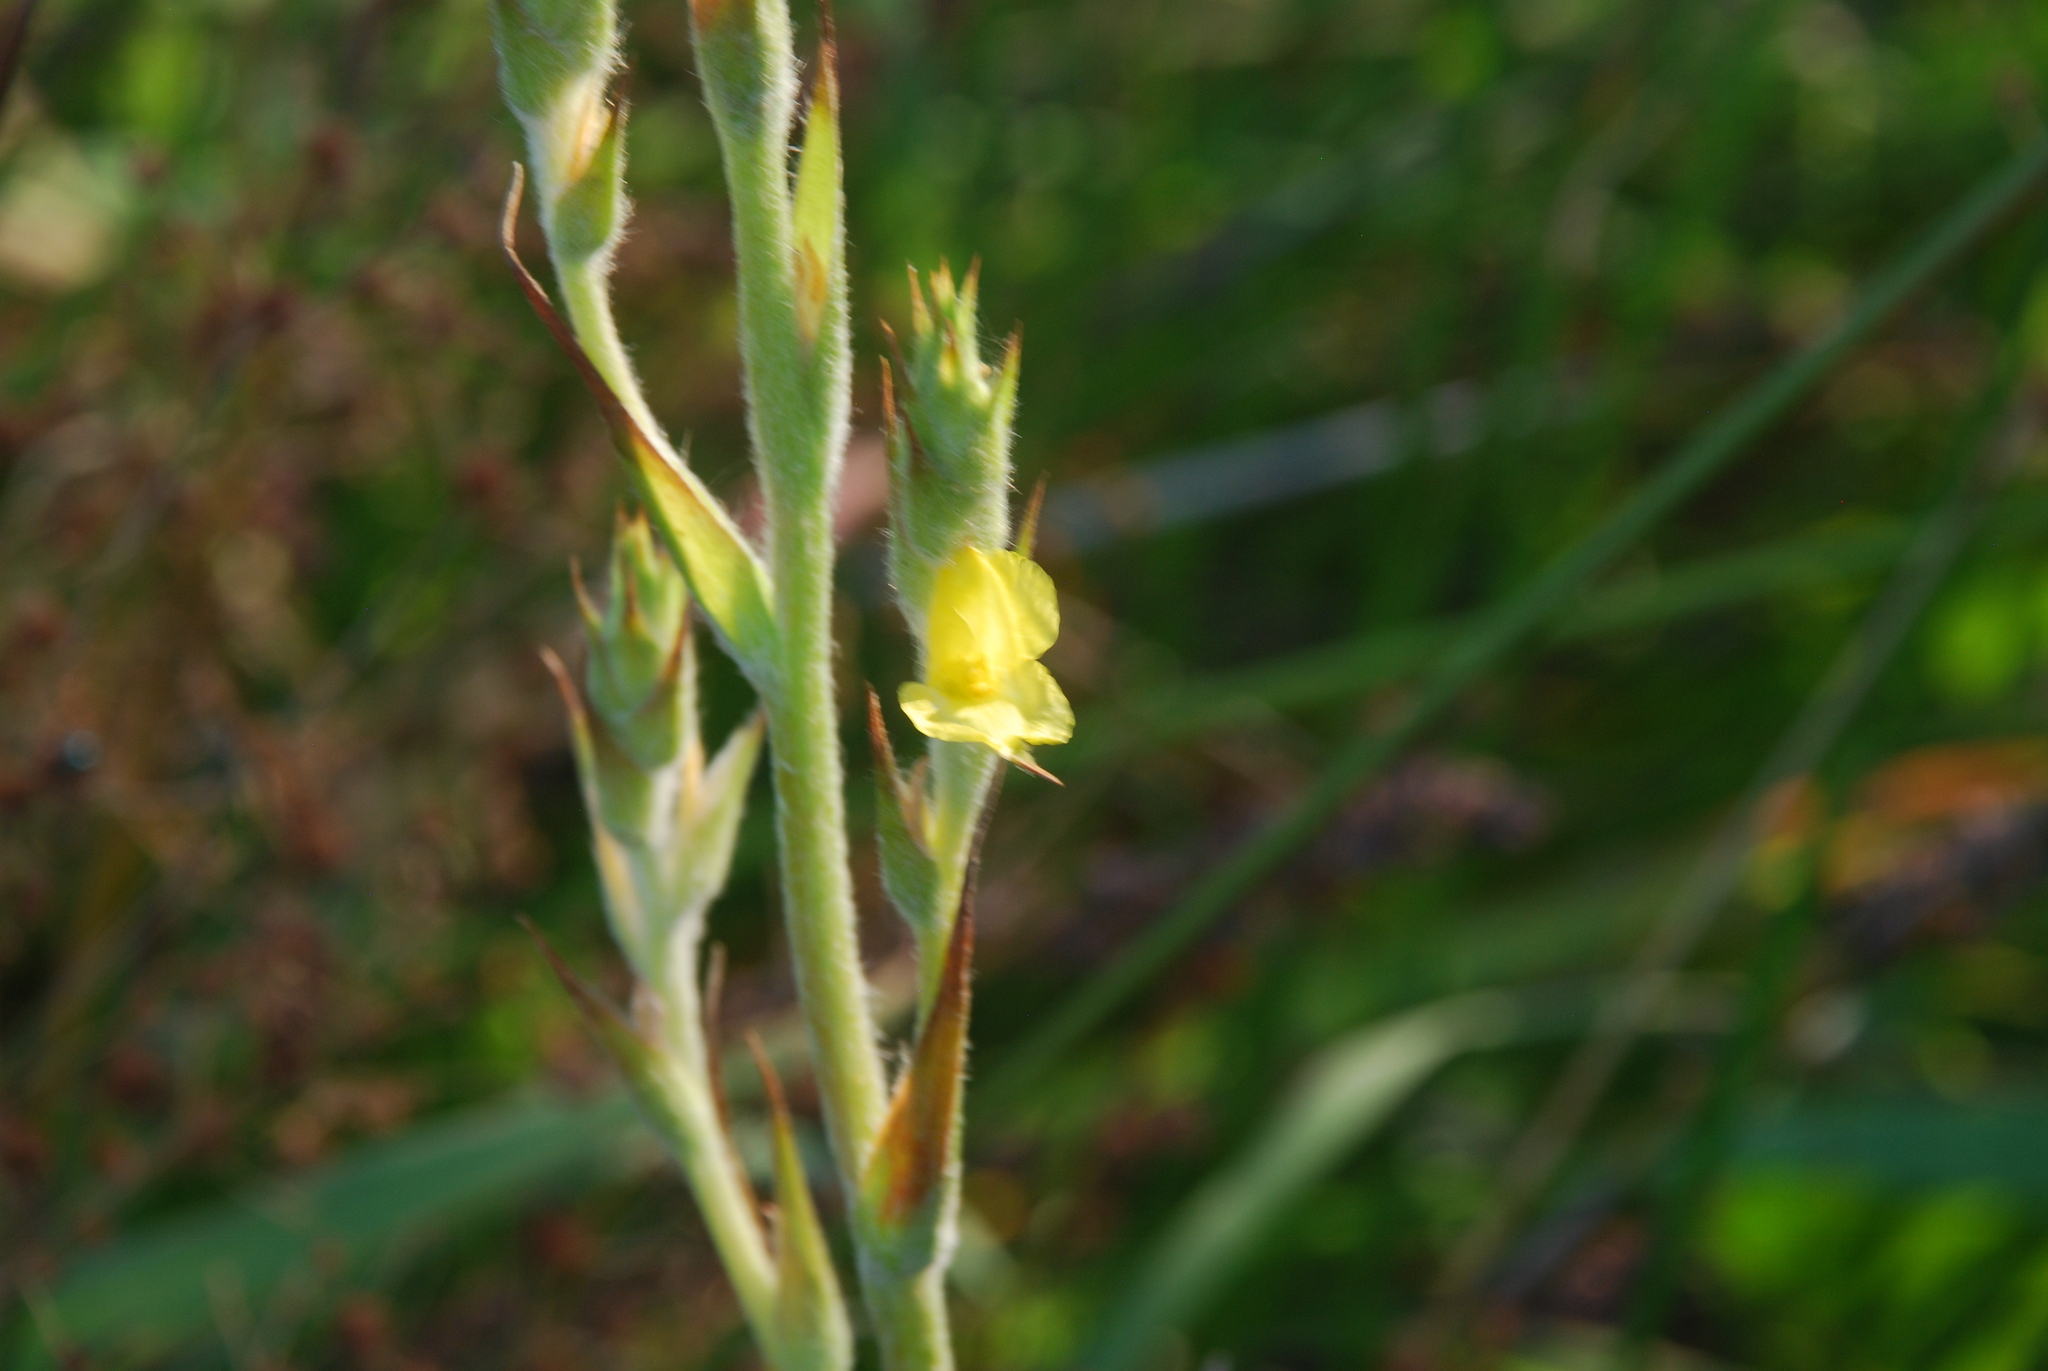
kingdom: Plantae
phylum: Tracheophyta
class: Liliopsida
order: Commelinales
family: Philydraceae
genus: Philydrum
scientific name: Philydrum lanuginosum
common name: Woolly frog's mouth
